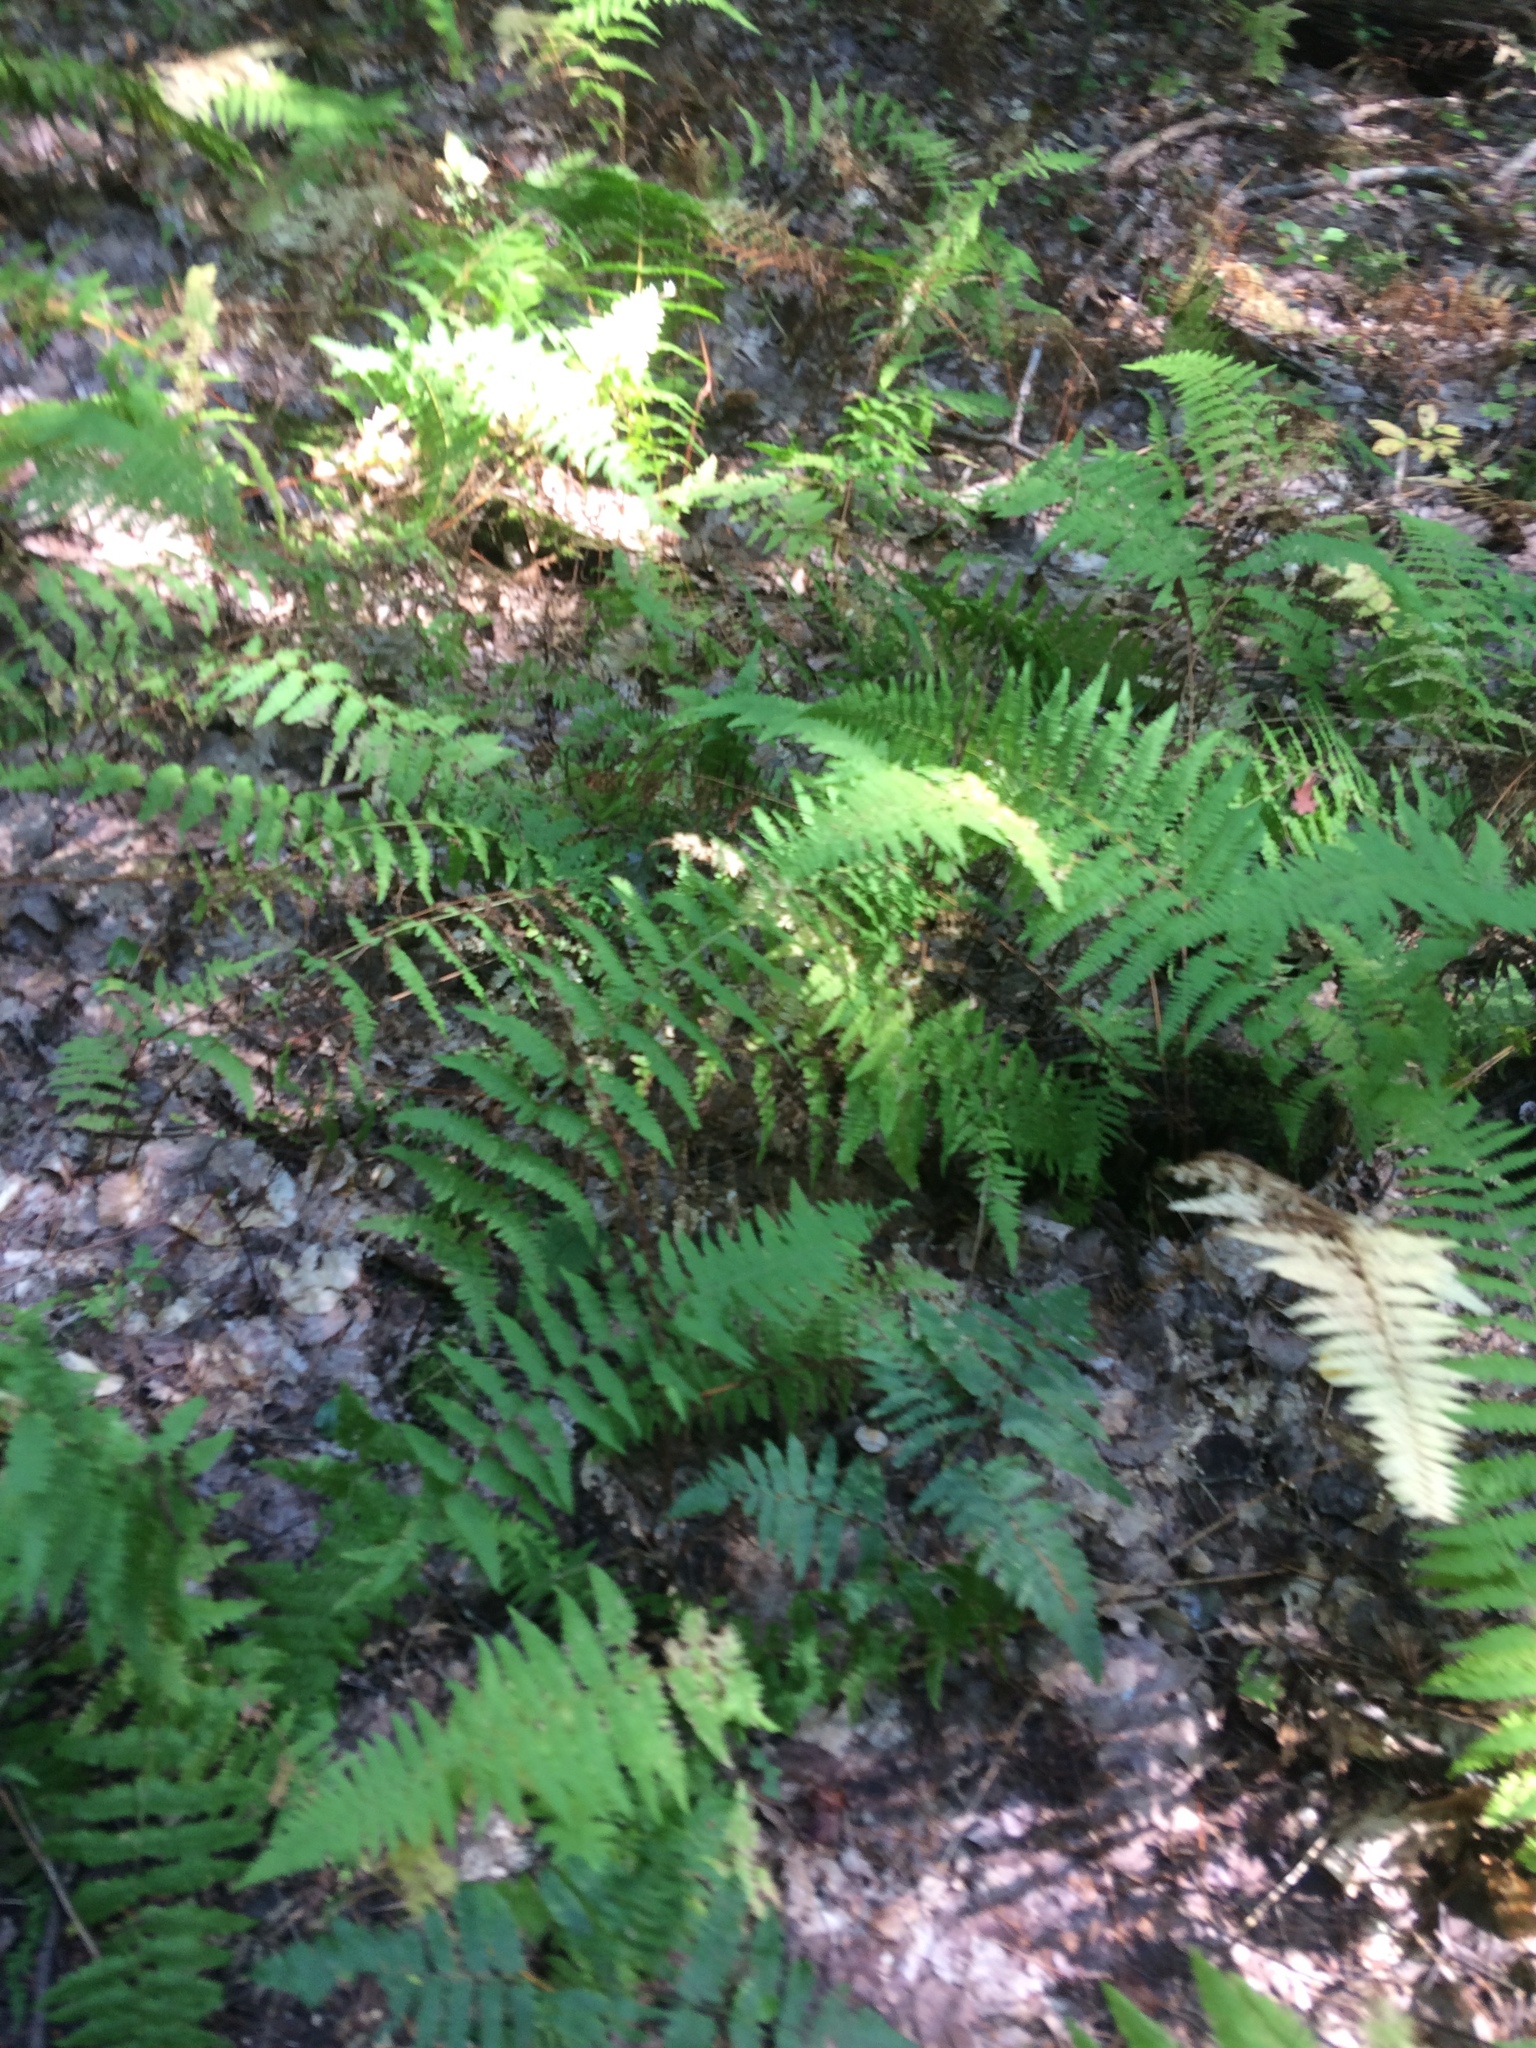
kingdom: Plantae
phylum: Tracheophyta
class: Polypodiopsida
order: Polypodiales
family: Dennstaedtiaceae
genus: Sitobolium
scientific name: Sitobolium punctilobum
